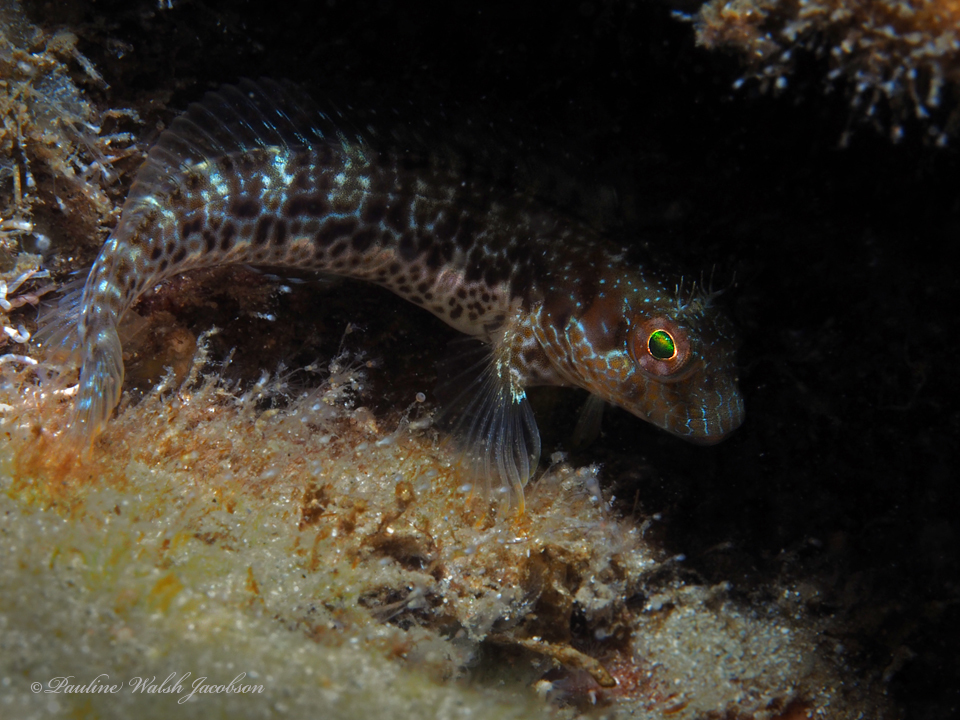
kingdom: Animalia
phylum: Chordata
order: Perciformes
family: Blenniidae
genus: Parablennius
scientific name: Parablennius marmoreus
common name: Seaweed blenny
